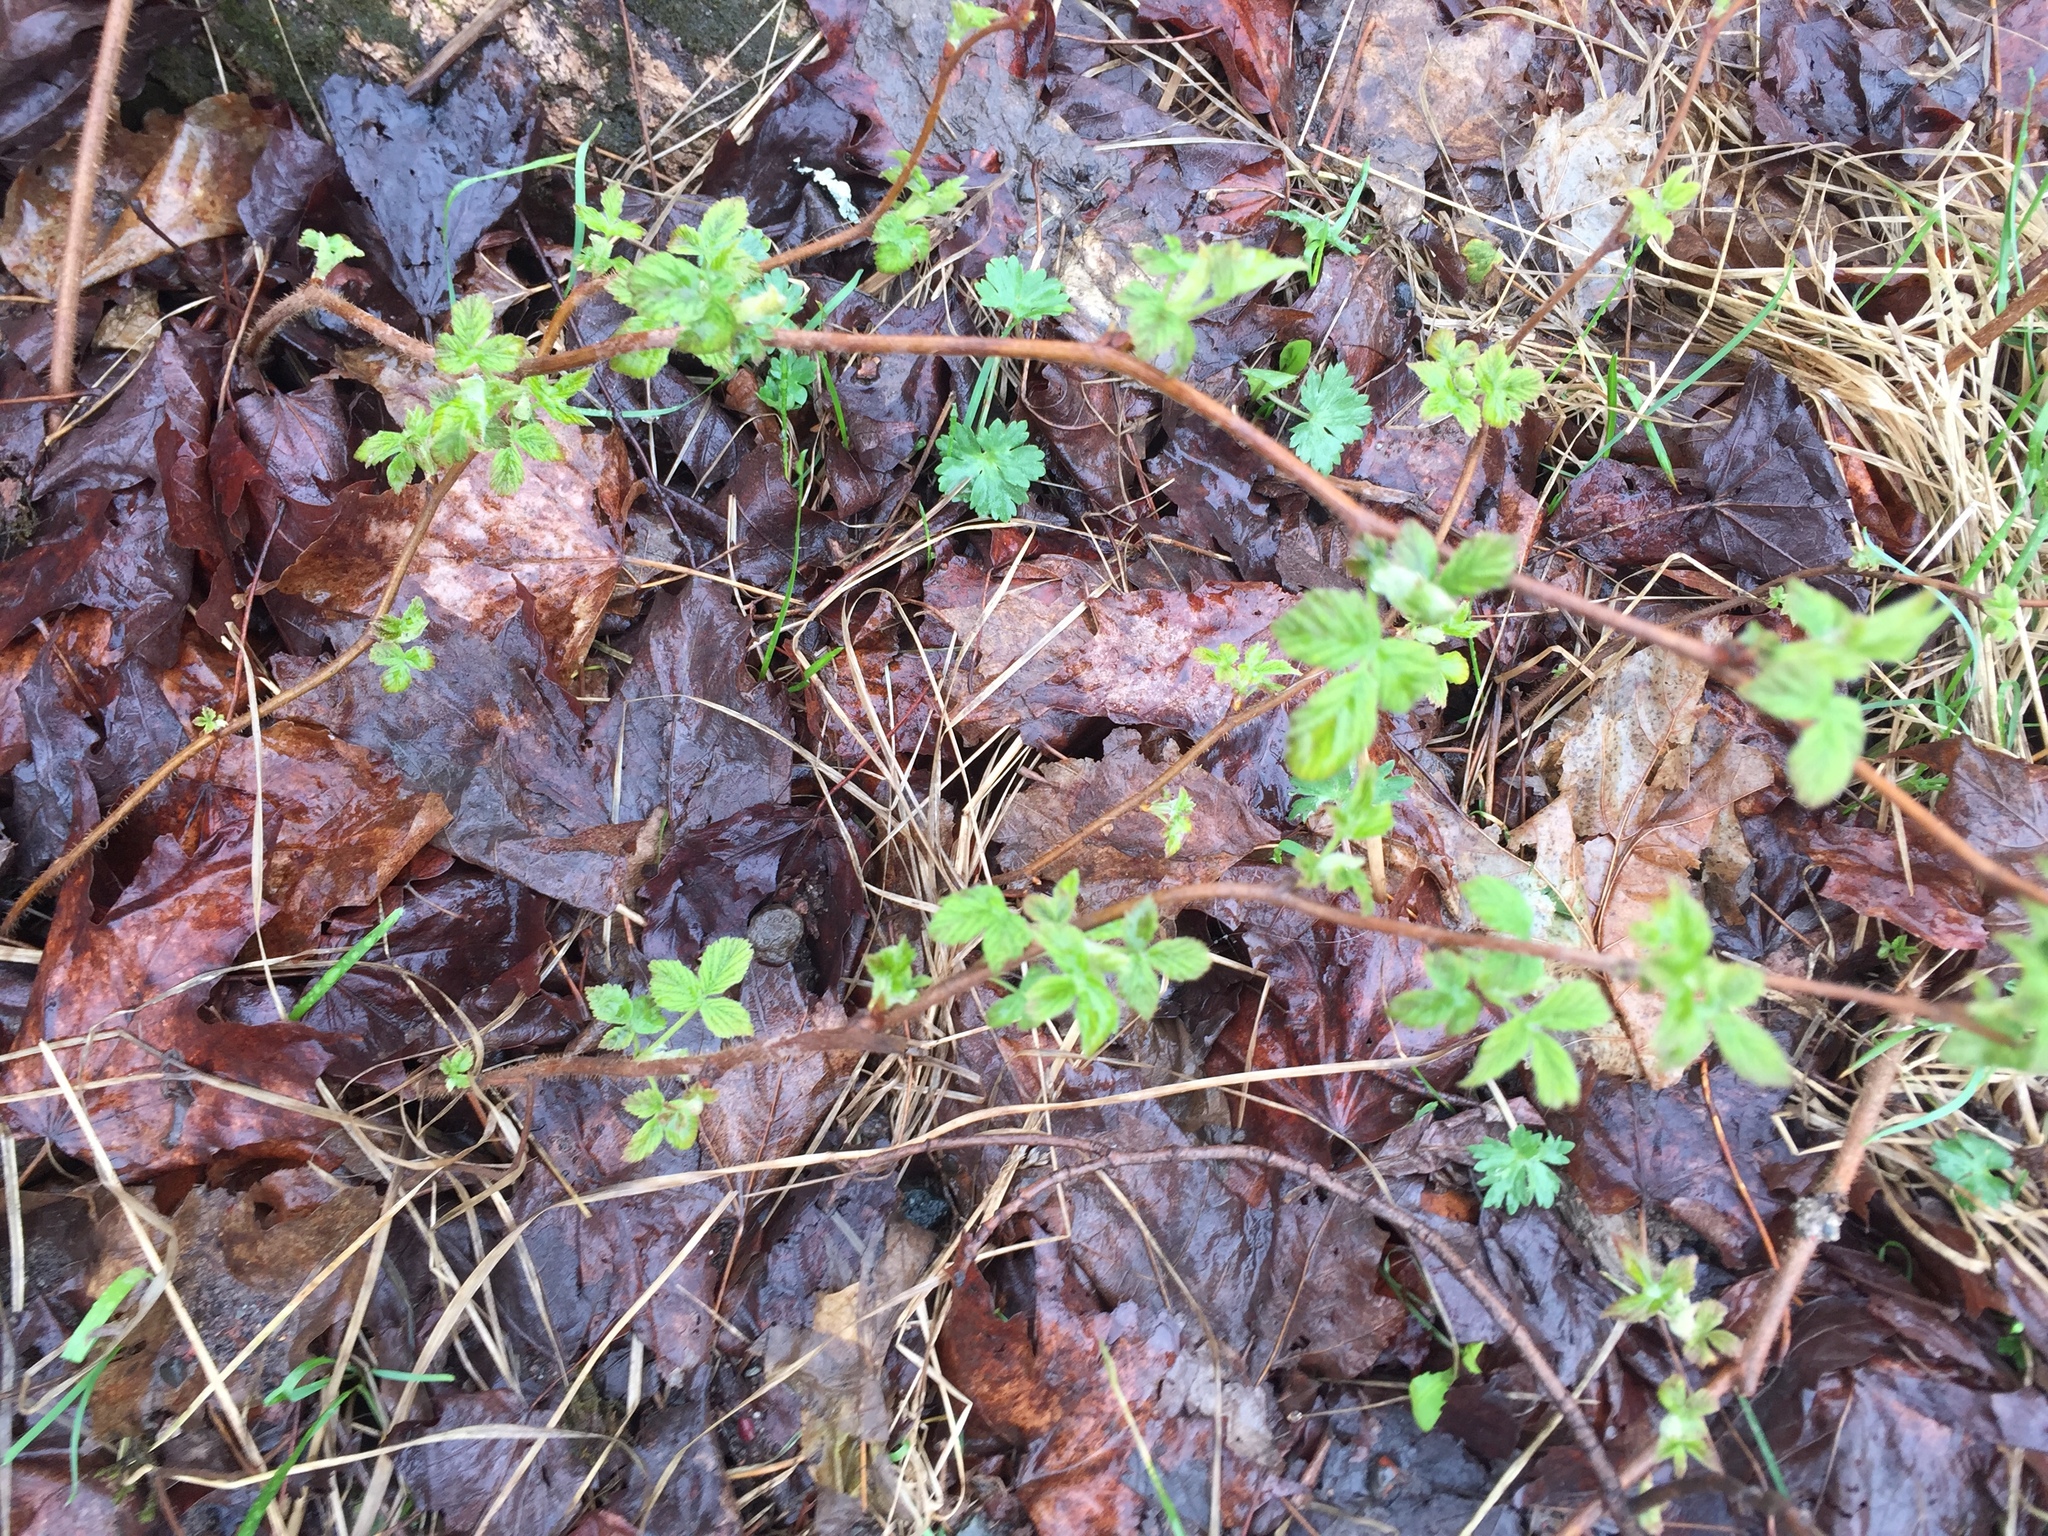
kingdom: Plantae
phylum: Tracheophyta
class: Magnoliopsida
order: Rosales
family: Rosaceae
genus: Rubus
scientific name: Rubus idaeus
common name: Raspberry
